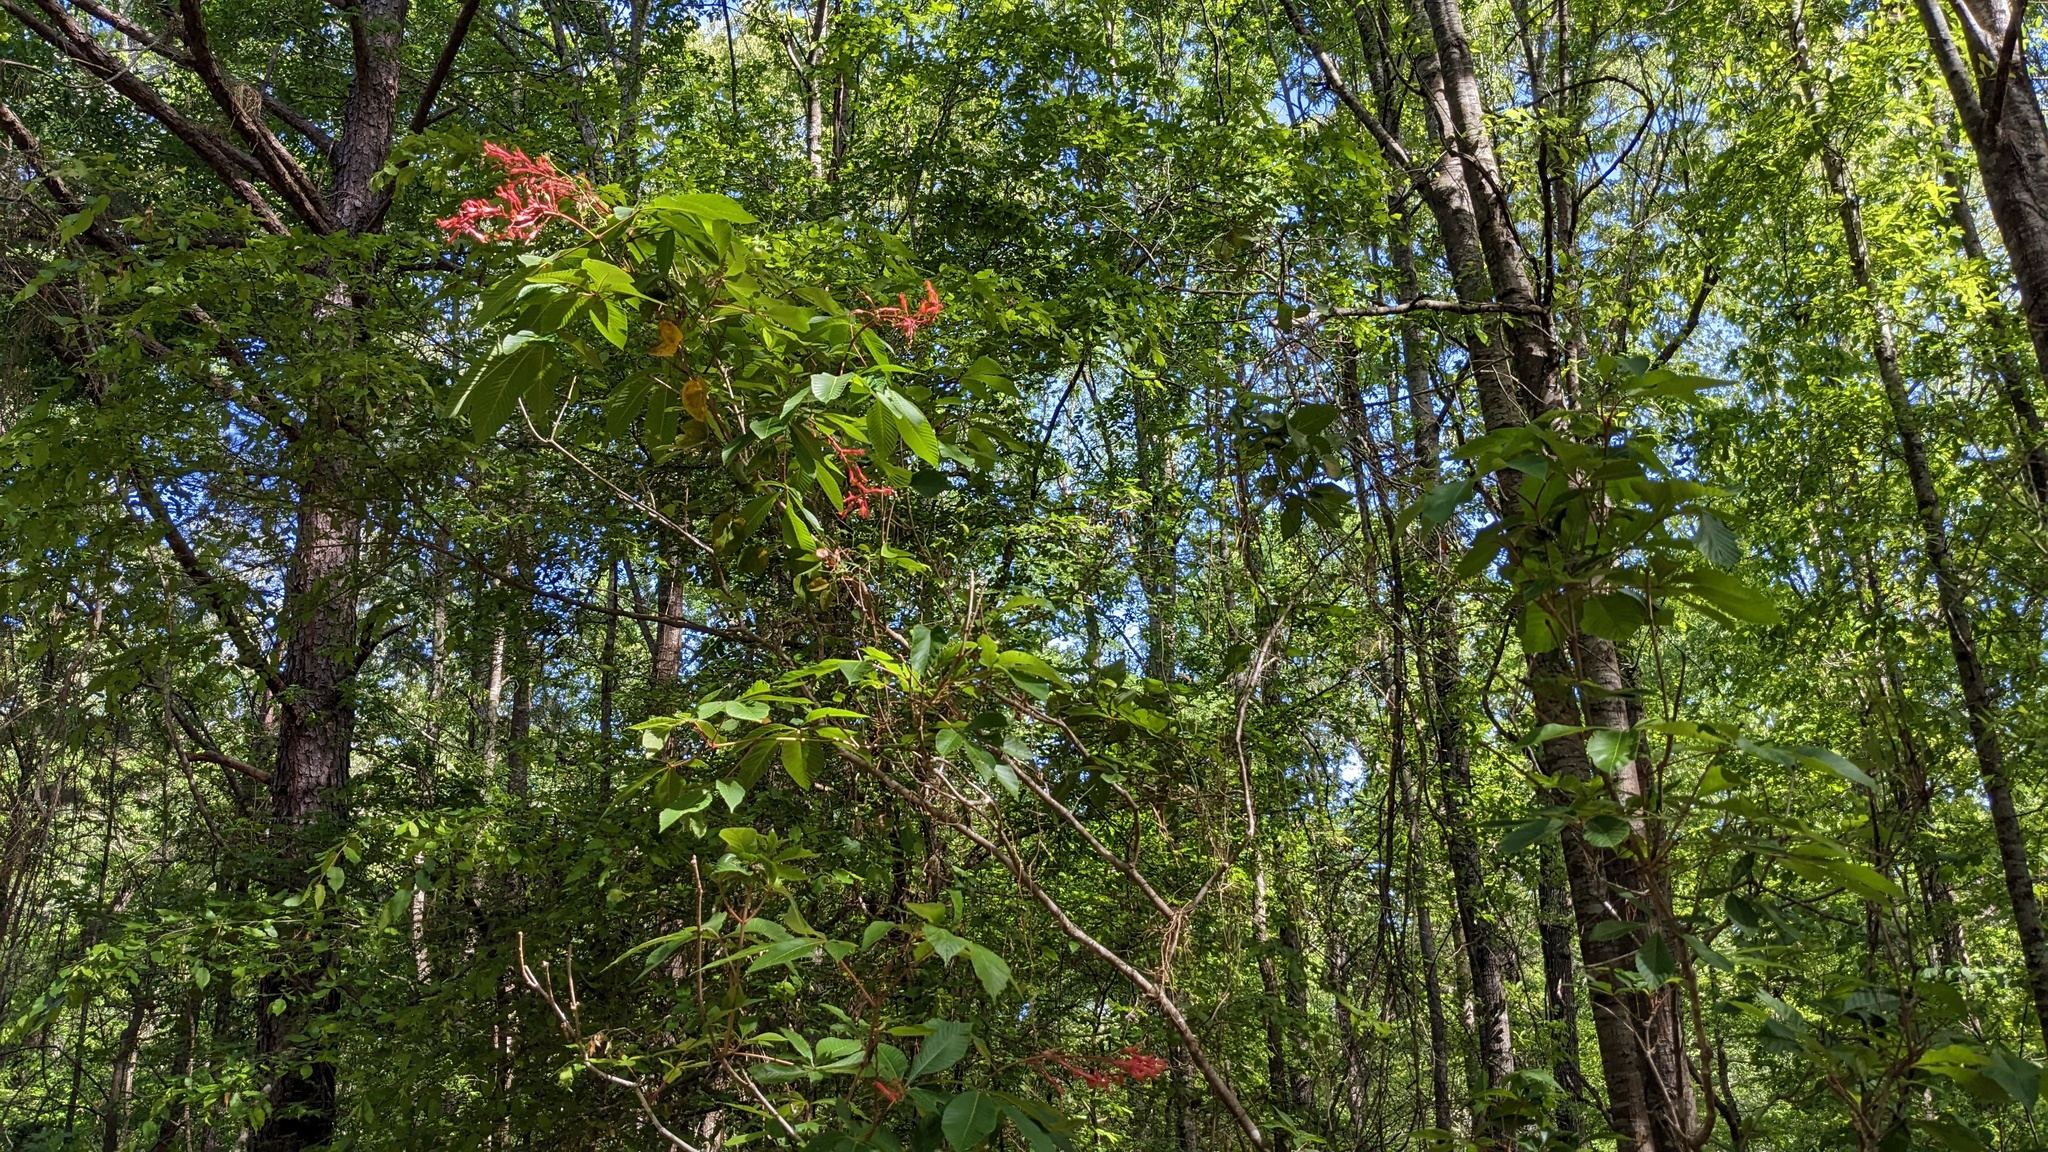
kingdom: Plantae
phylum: Tracheophyta
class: Magnoliopsida
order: Sapindales
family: Sapindaceae
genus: Aesculus
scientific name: Aesculus pavia
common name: Red buckeye
